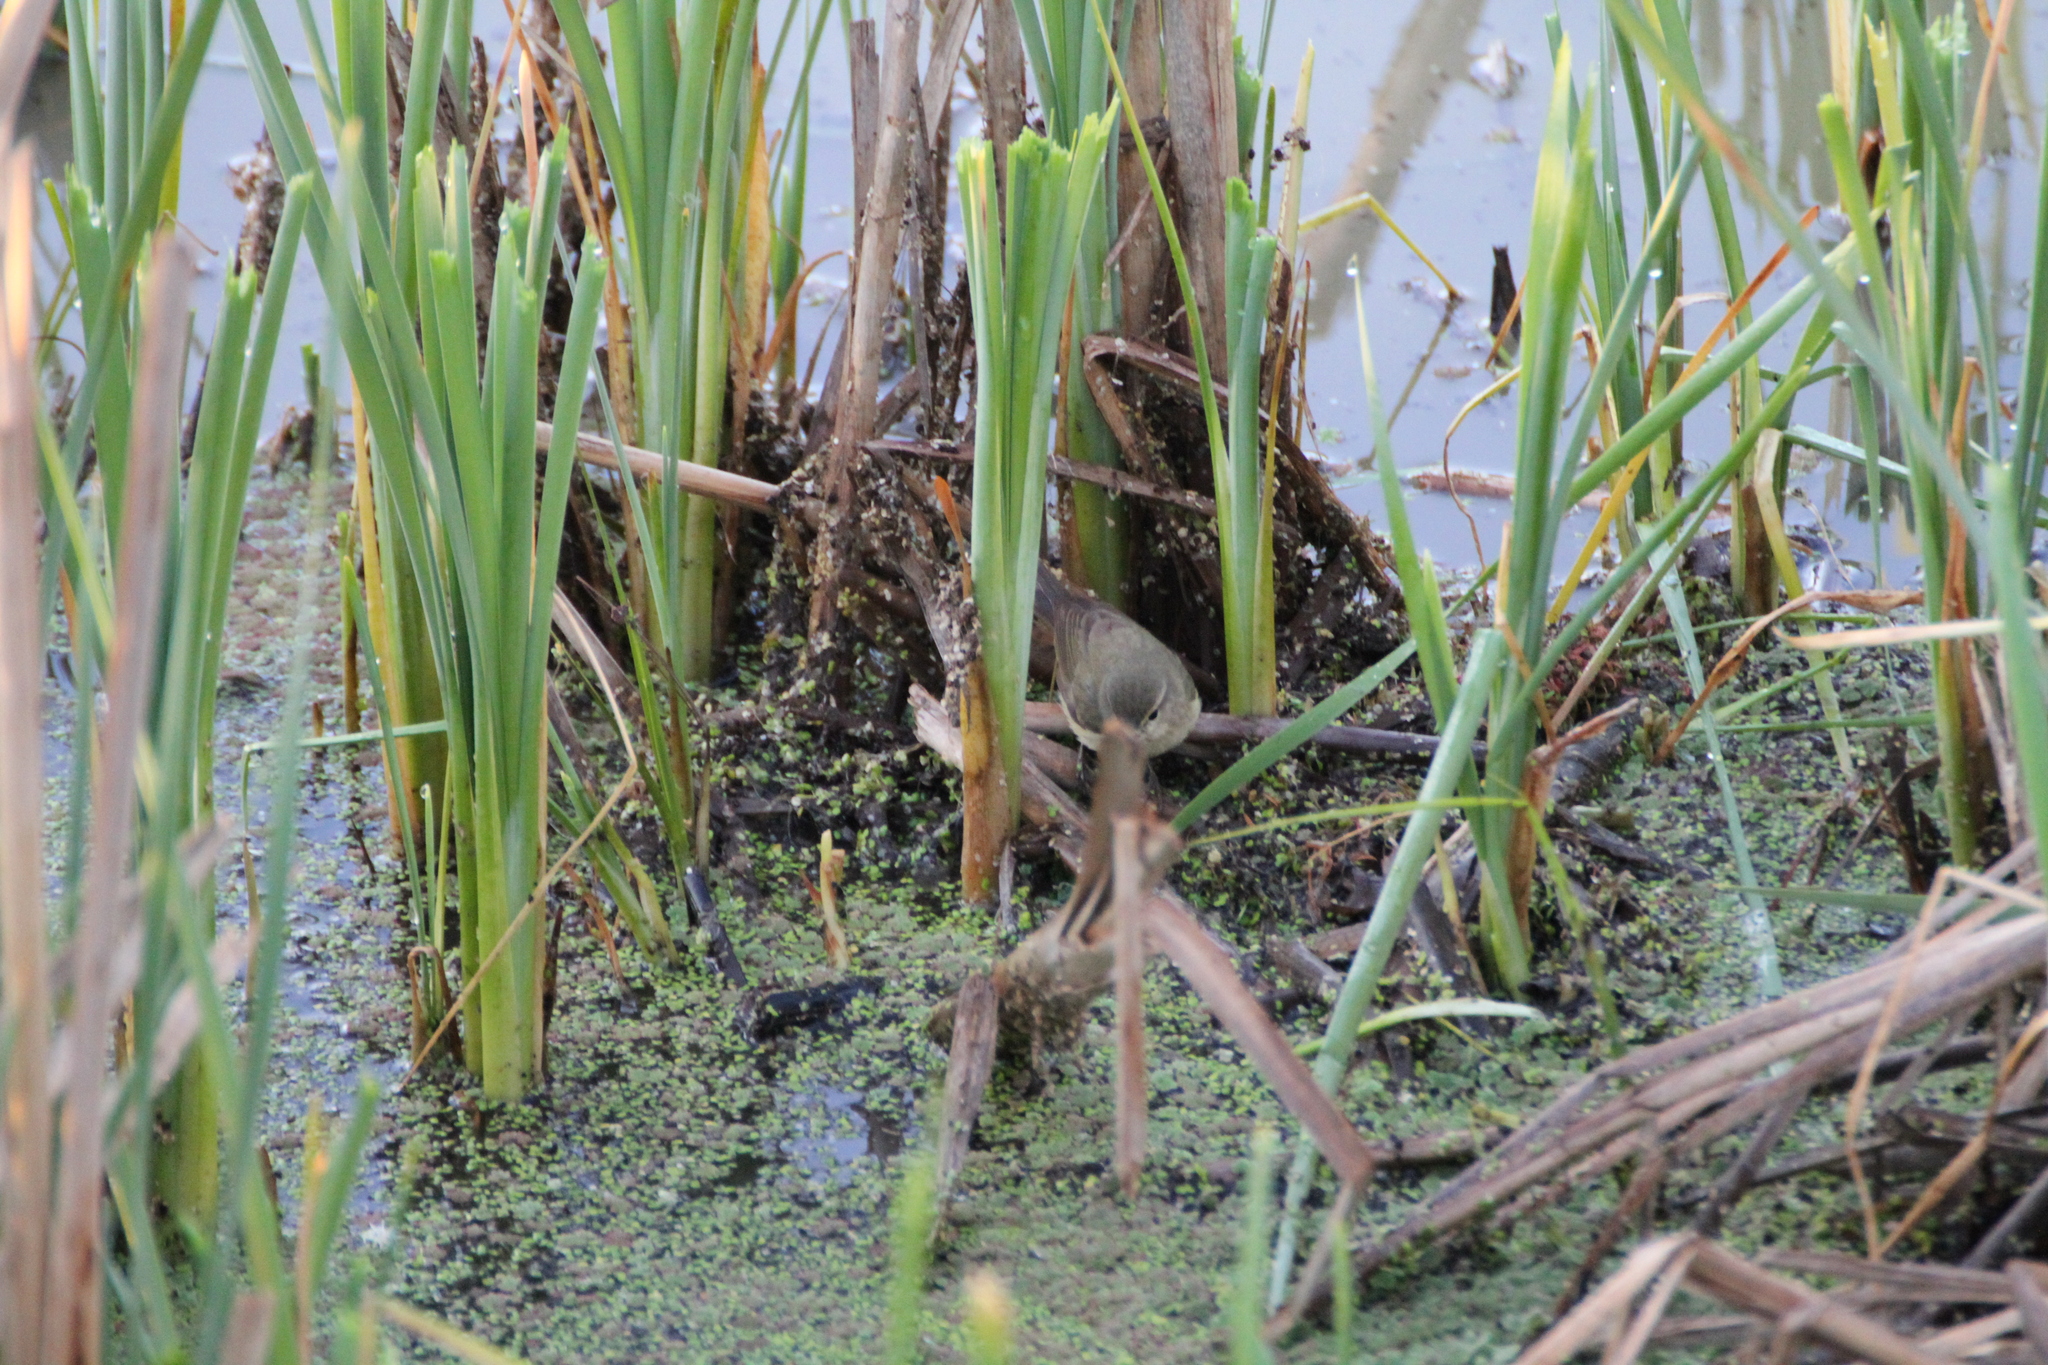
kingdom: Animalia
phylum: Chordata
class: Aves
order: Passeriformes
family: Phylloscopidae
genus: Phylloscopus
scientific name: Phylloscopus collybita
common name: Common chiffchaff
